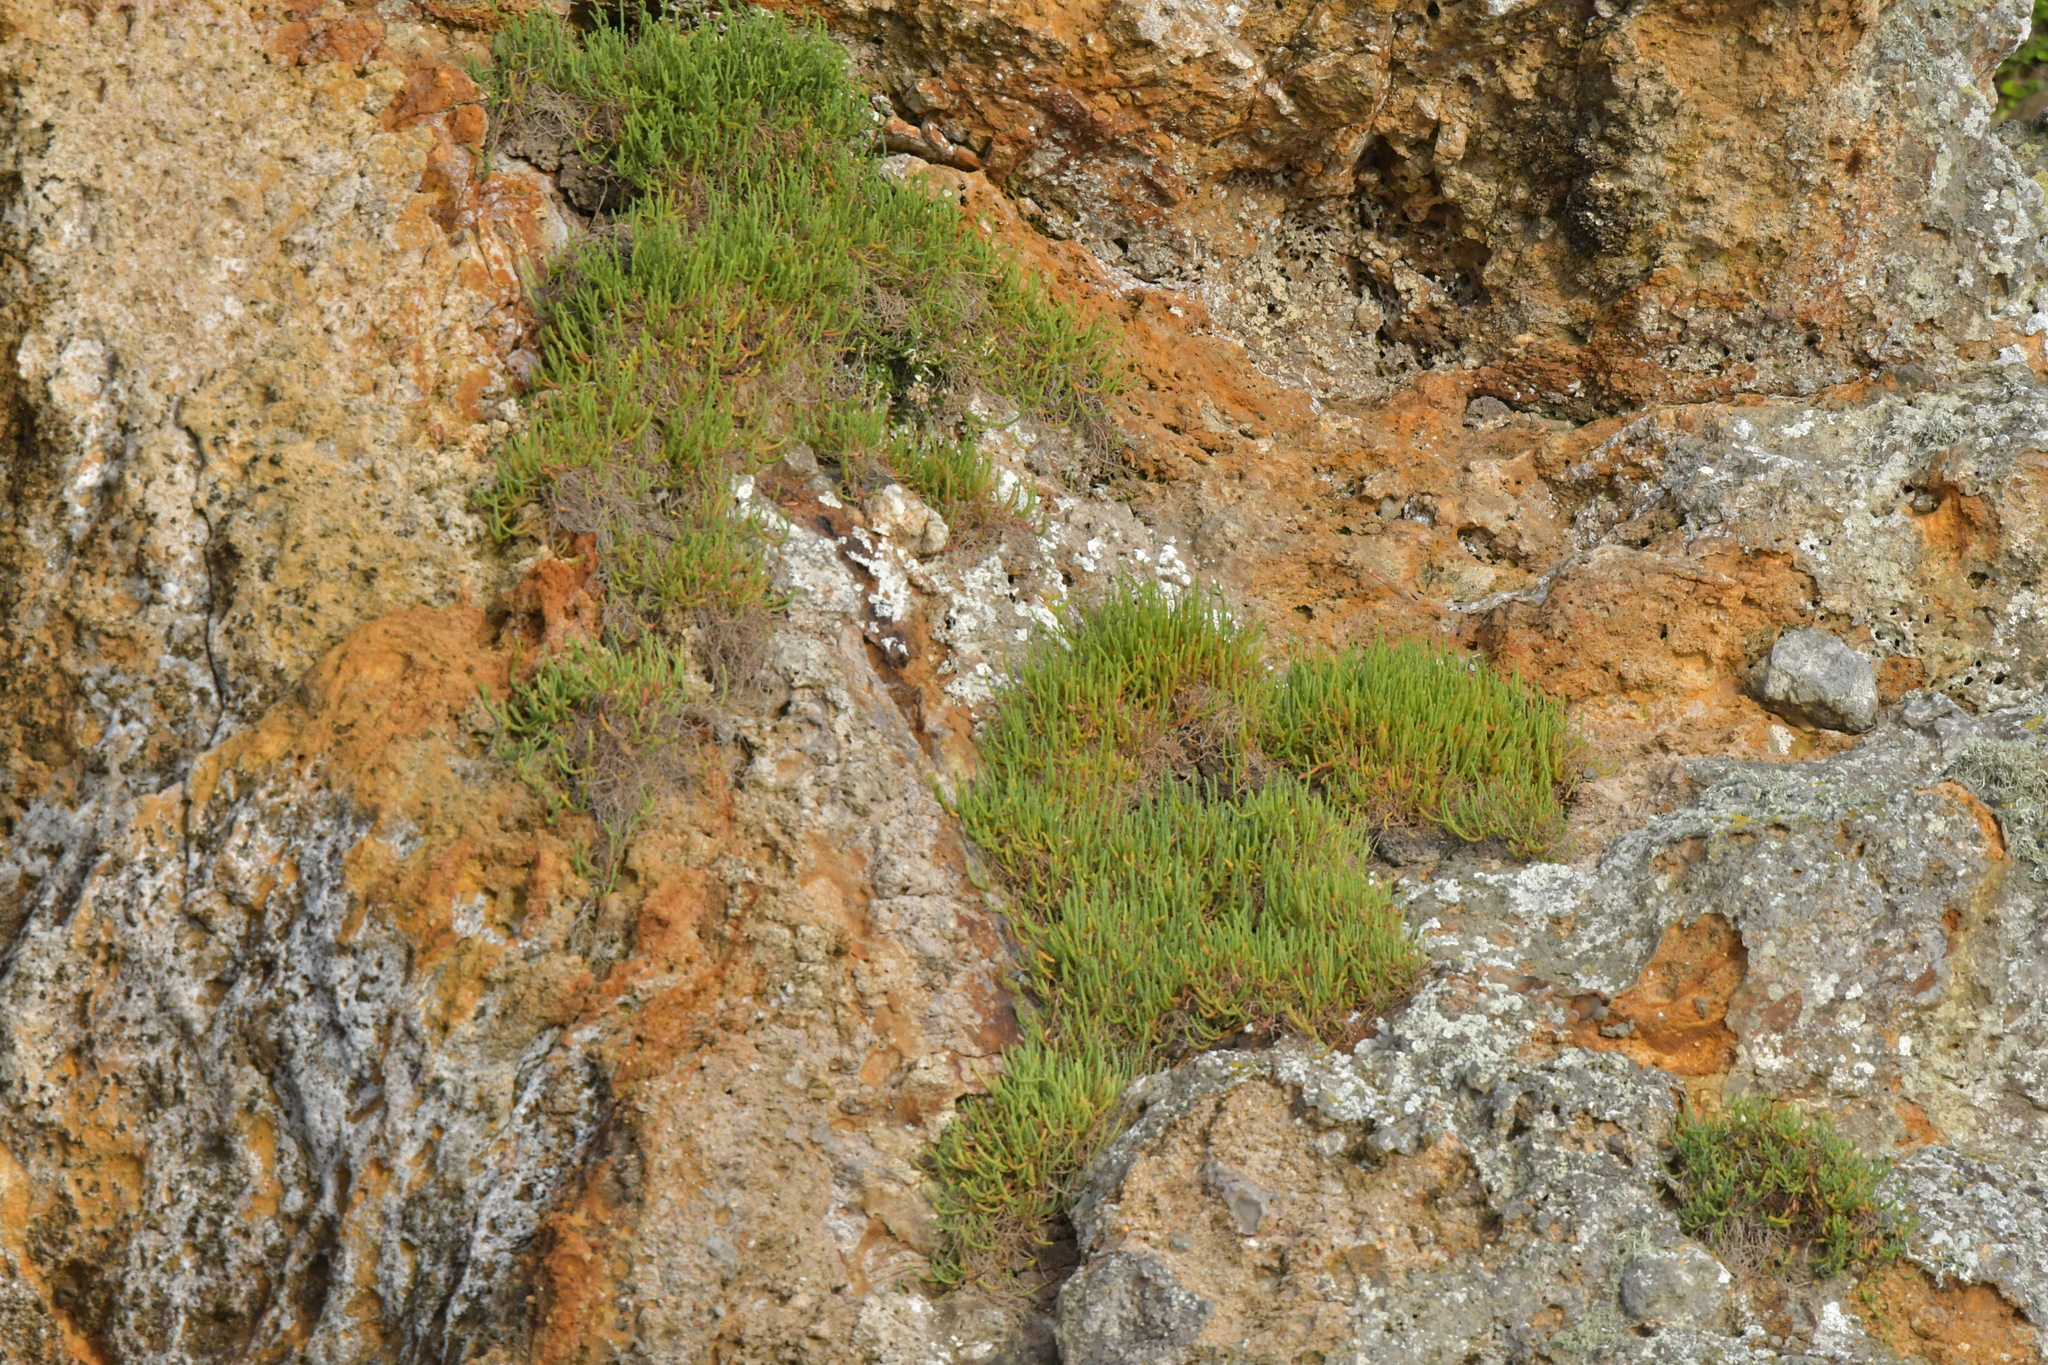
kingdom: Plantae
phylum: Tracheophyta
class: Magnoliopsida
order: Caryophyllales
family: Amaranthaceae
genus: Salicornia
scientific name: Salicornia quinqueflora
